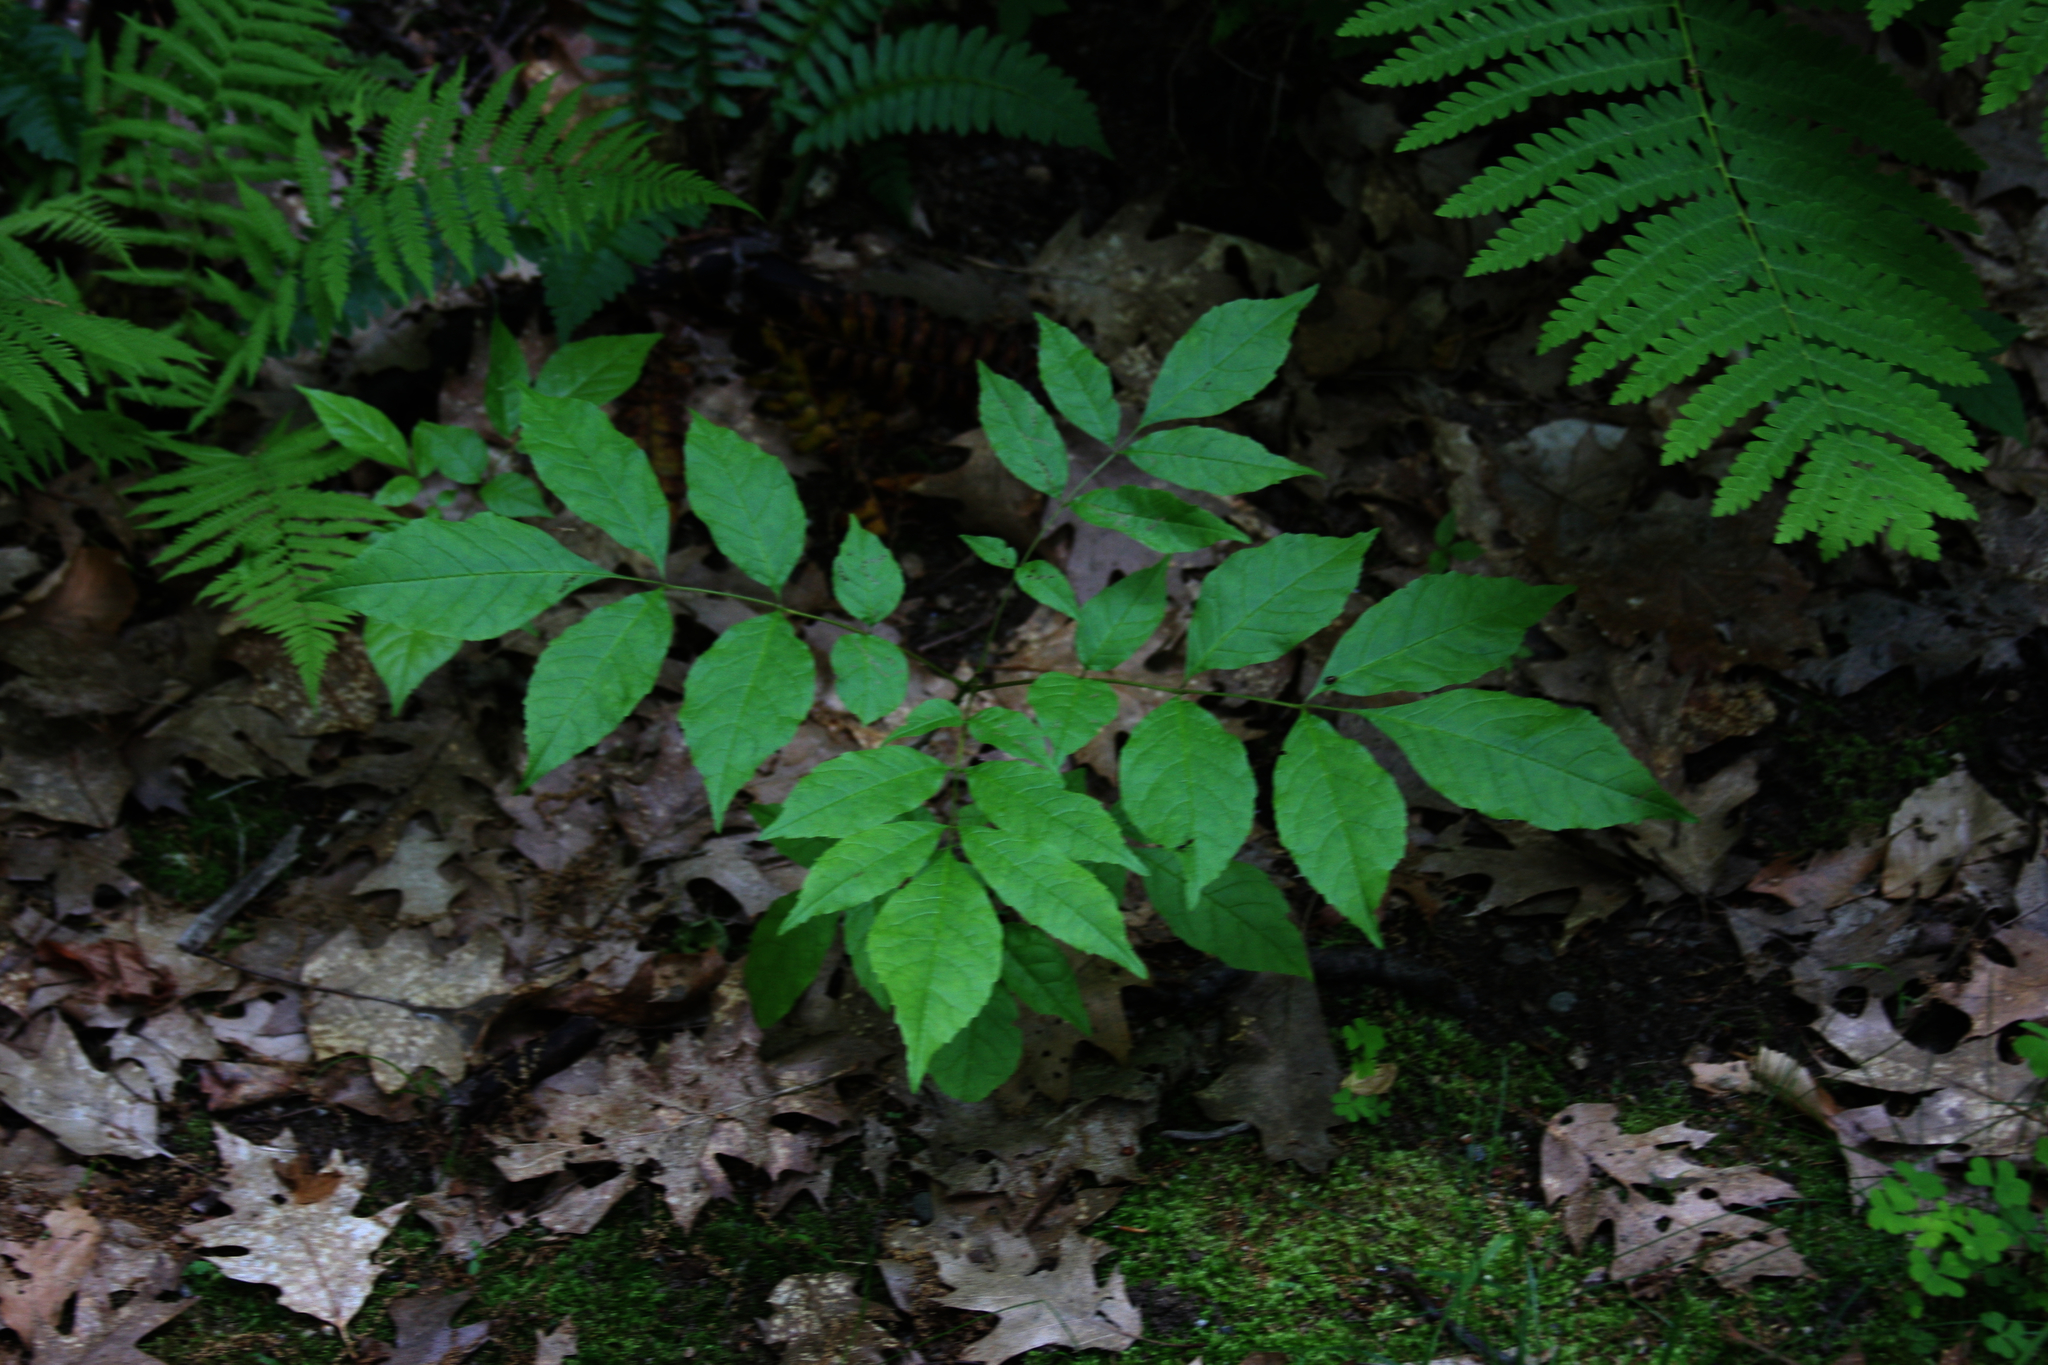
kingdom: Plantae
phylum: Tracheophyta
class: Magnoliopsida
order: Lamiales
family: Oleaceae
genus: Fraxinus
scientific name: Fraxinus americana
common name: White ash
